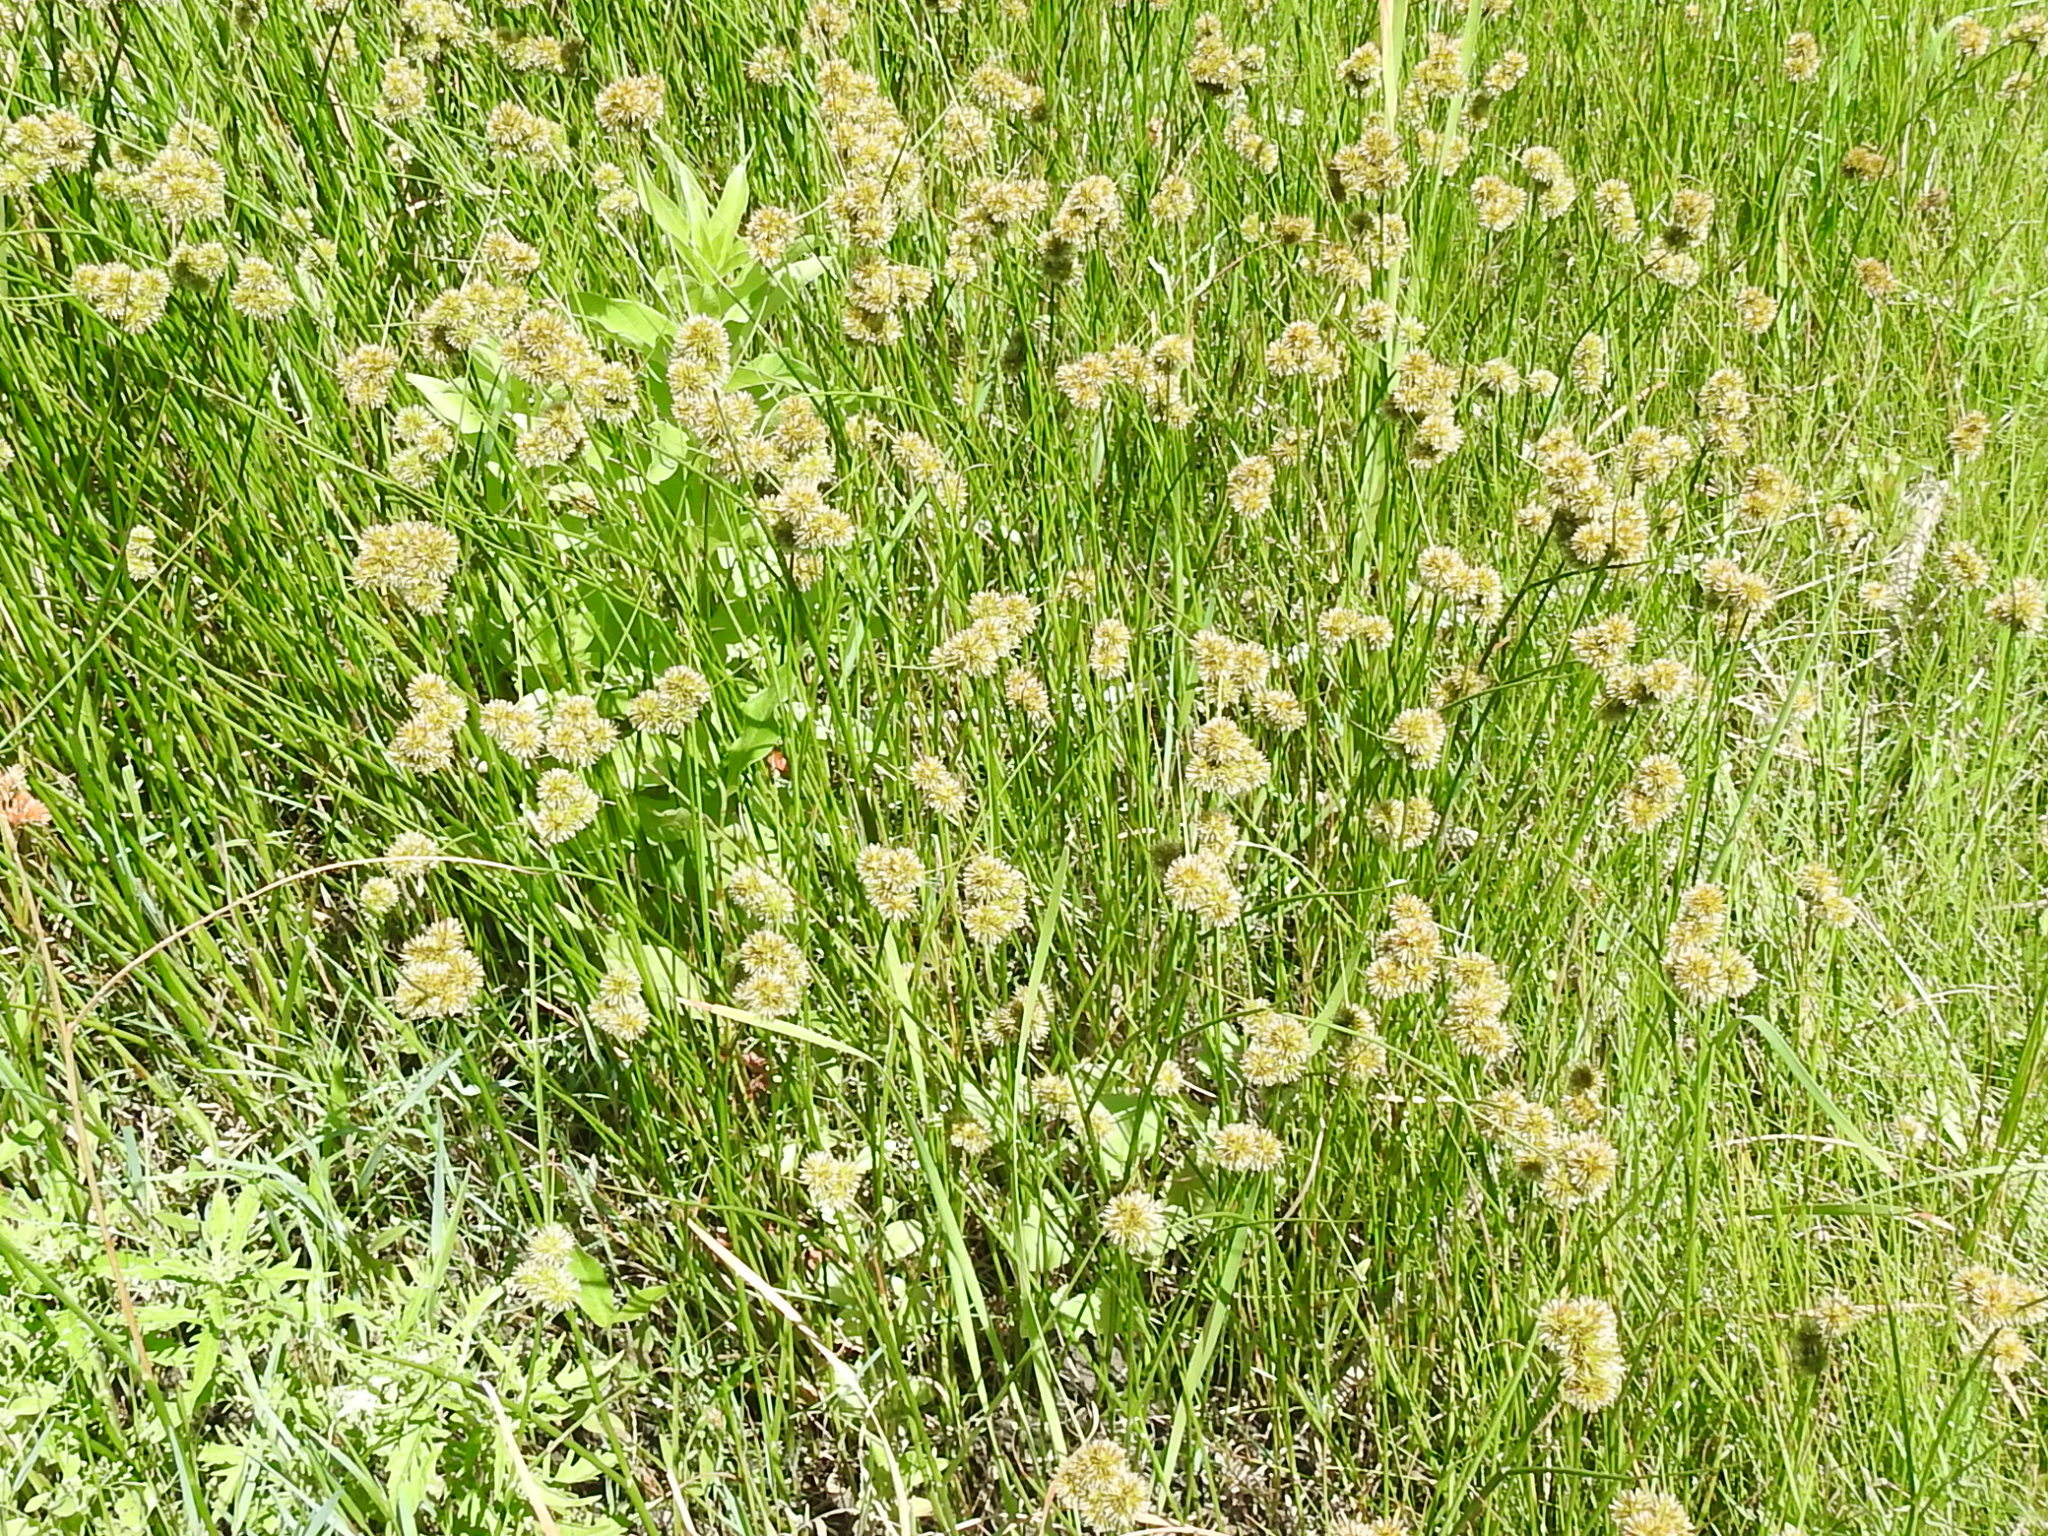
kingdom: Plantae
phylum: Tracheophyta
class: Liliopsida
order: Poales
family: Juncaceae
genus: Juncus
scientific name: Juncus torreyi
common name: Torrey's rush
